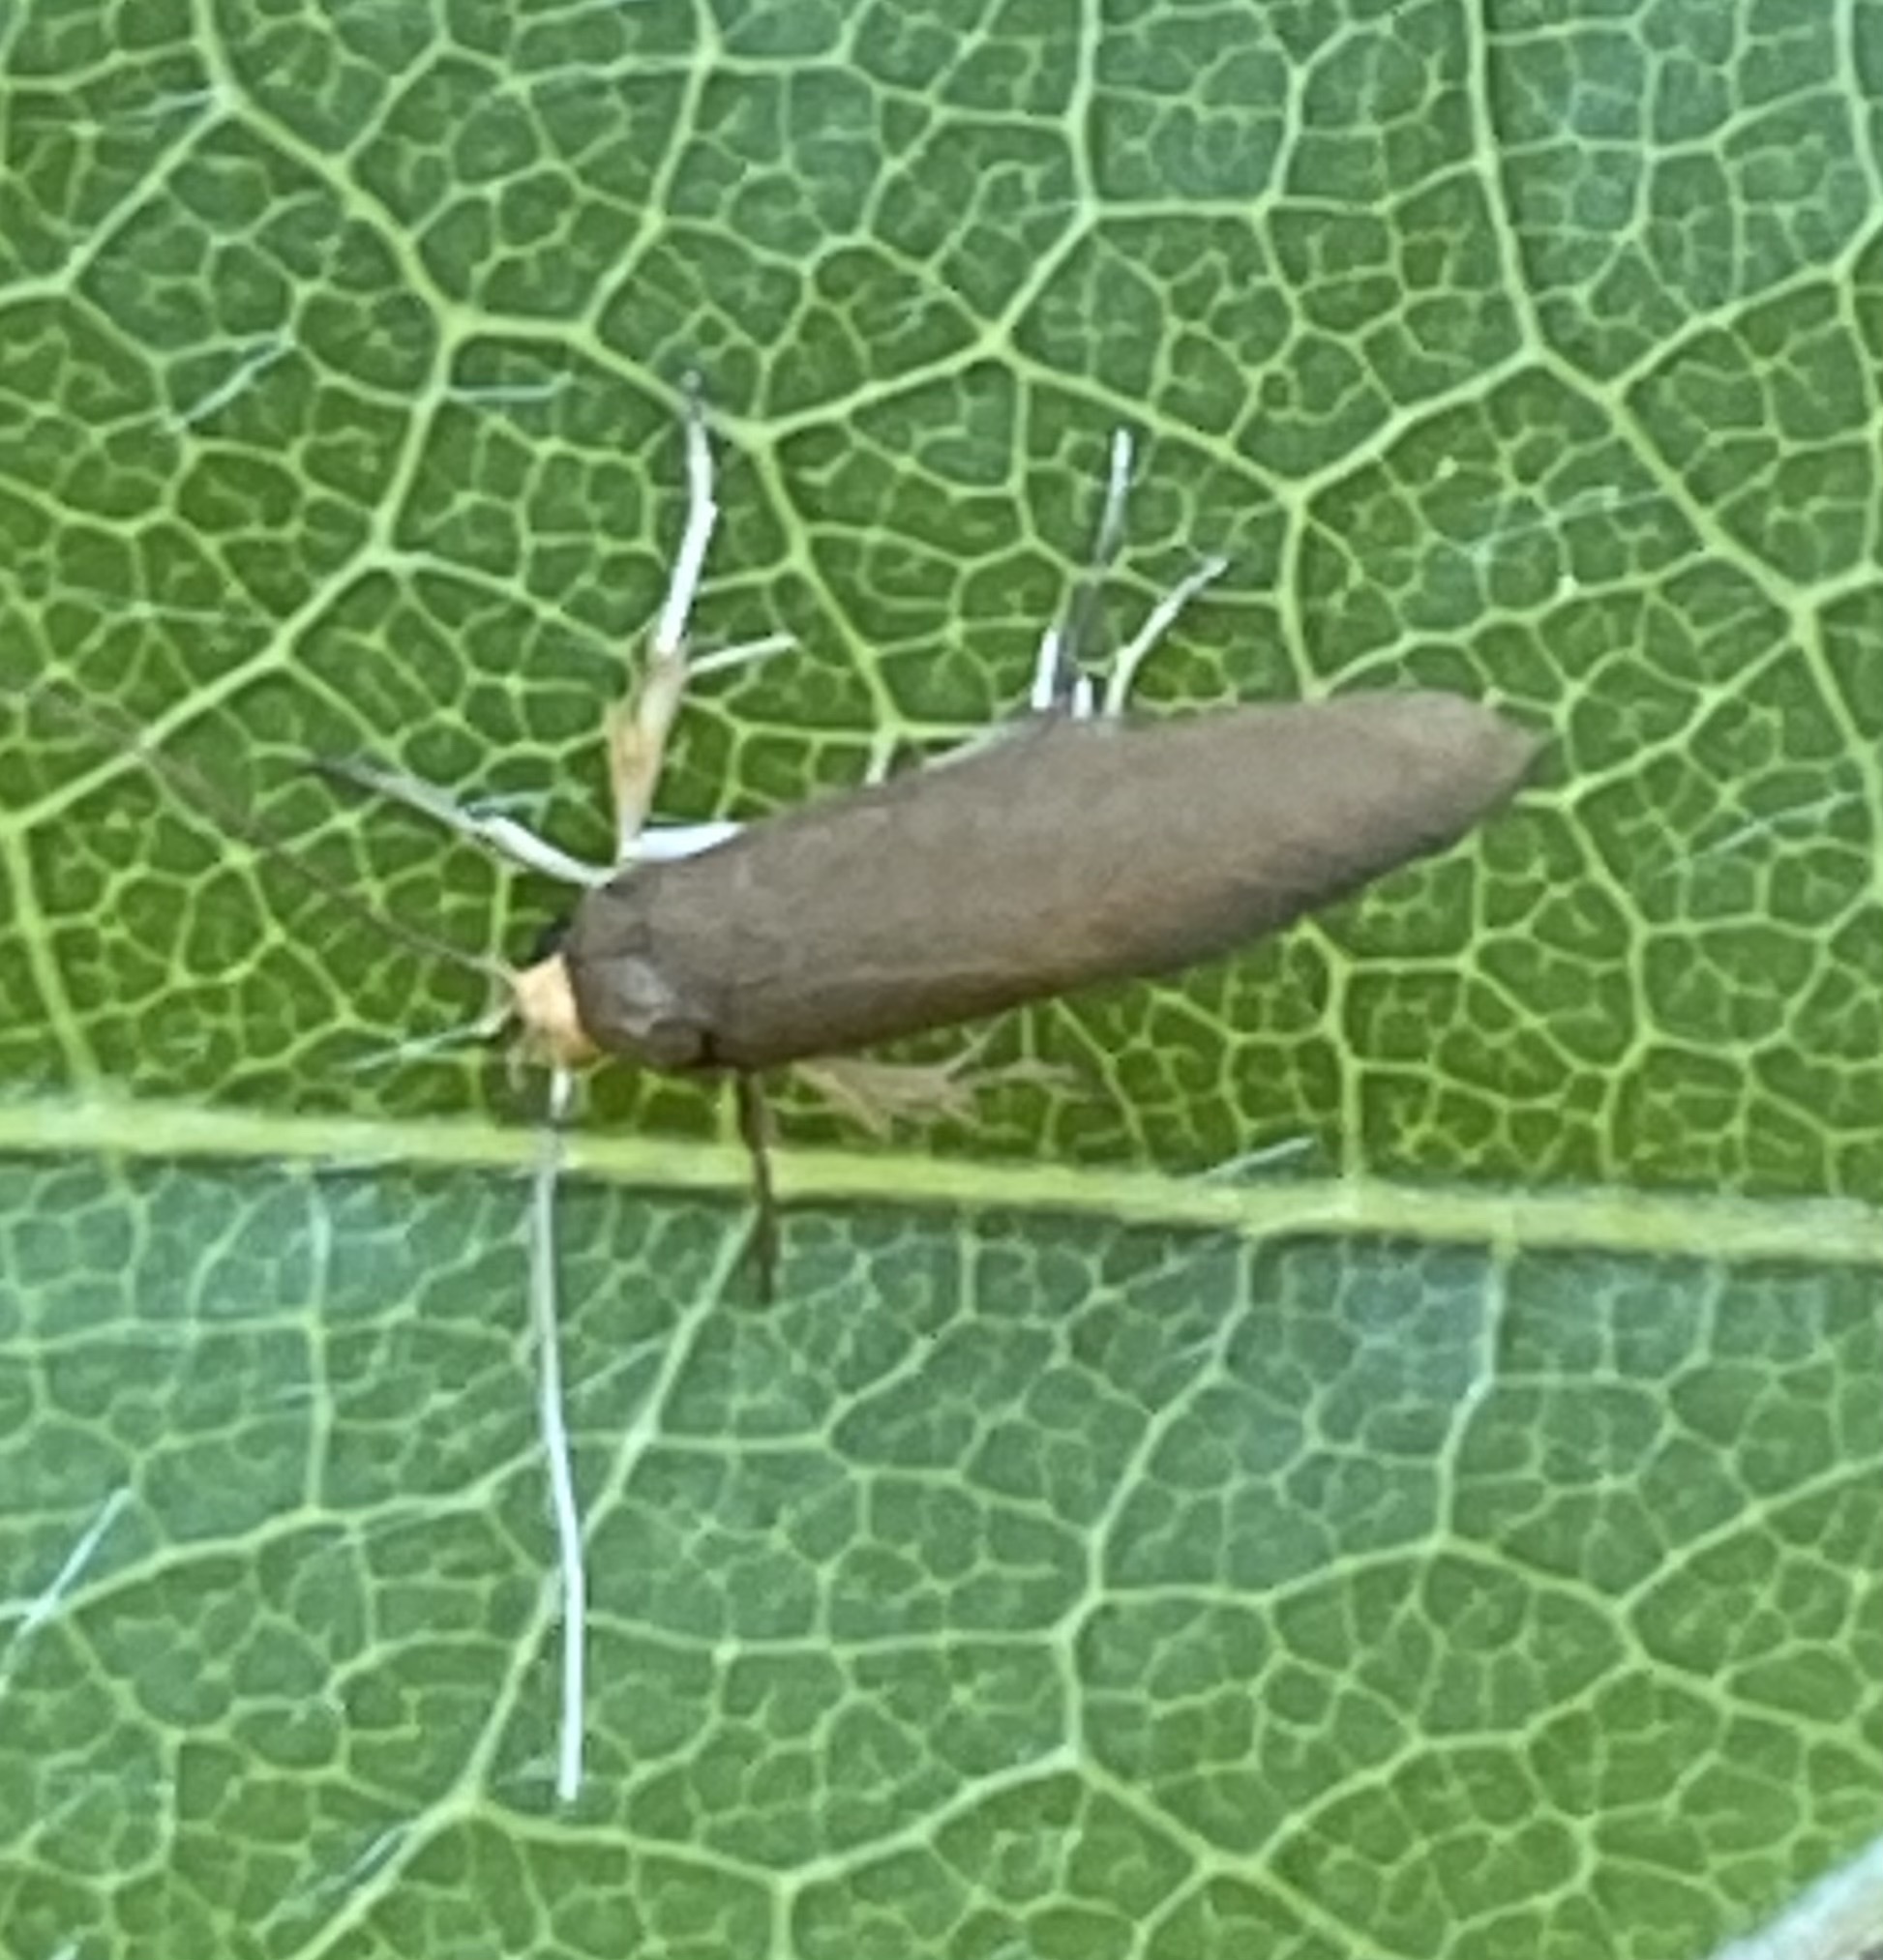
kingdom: Animalia
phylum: Arthropoda
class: Insecta
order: Lepidoptera
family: Oecophoridae
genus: Borkhausenia
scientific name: Borkhausenia Crassa unitella
